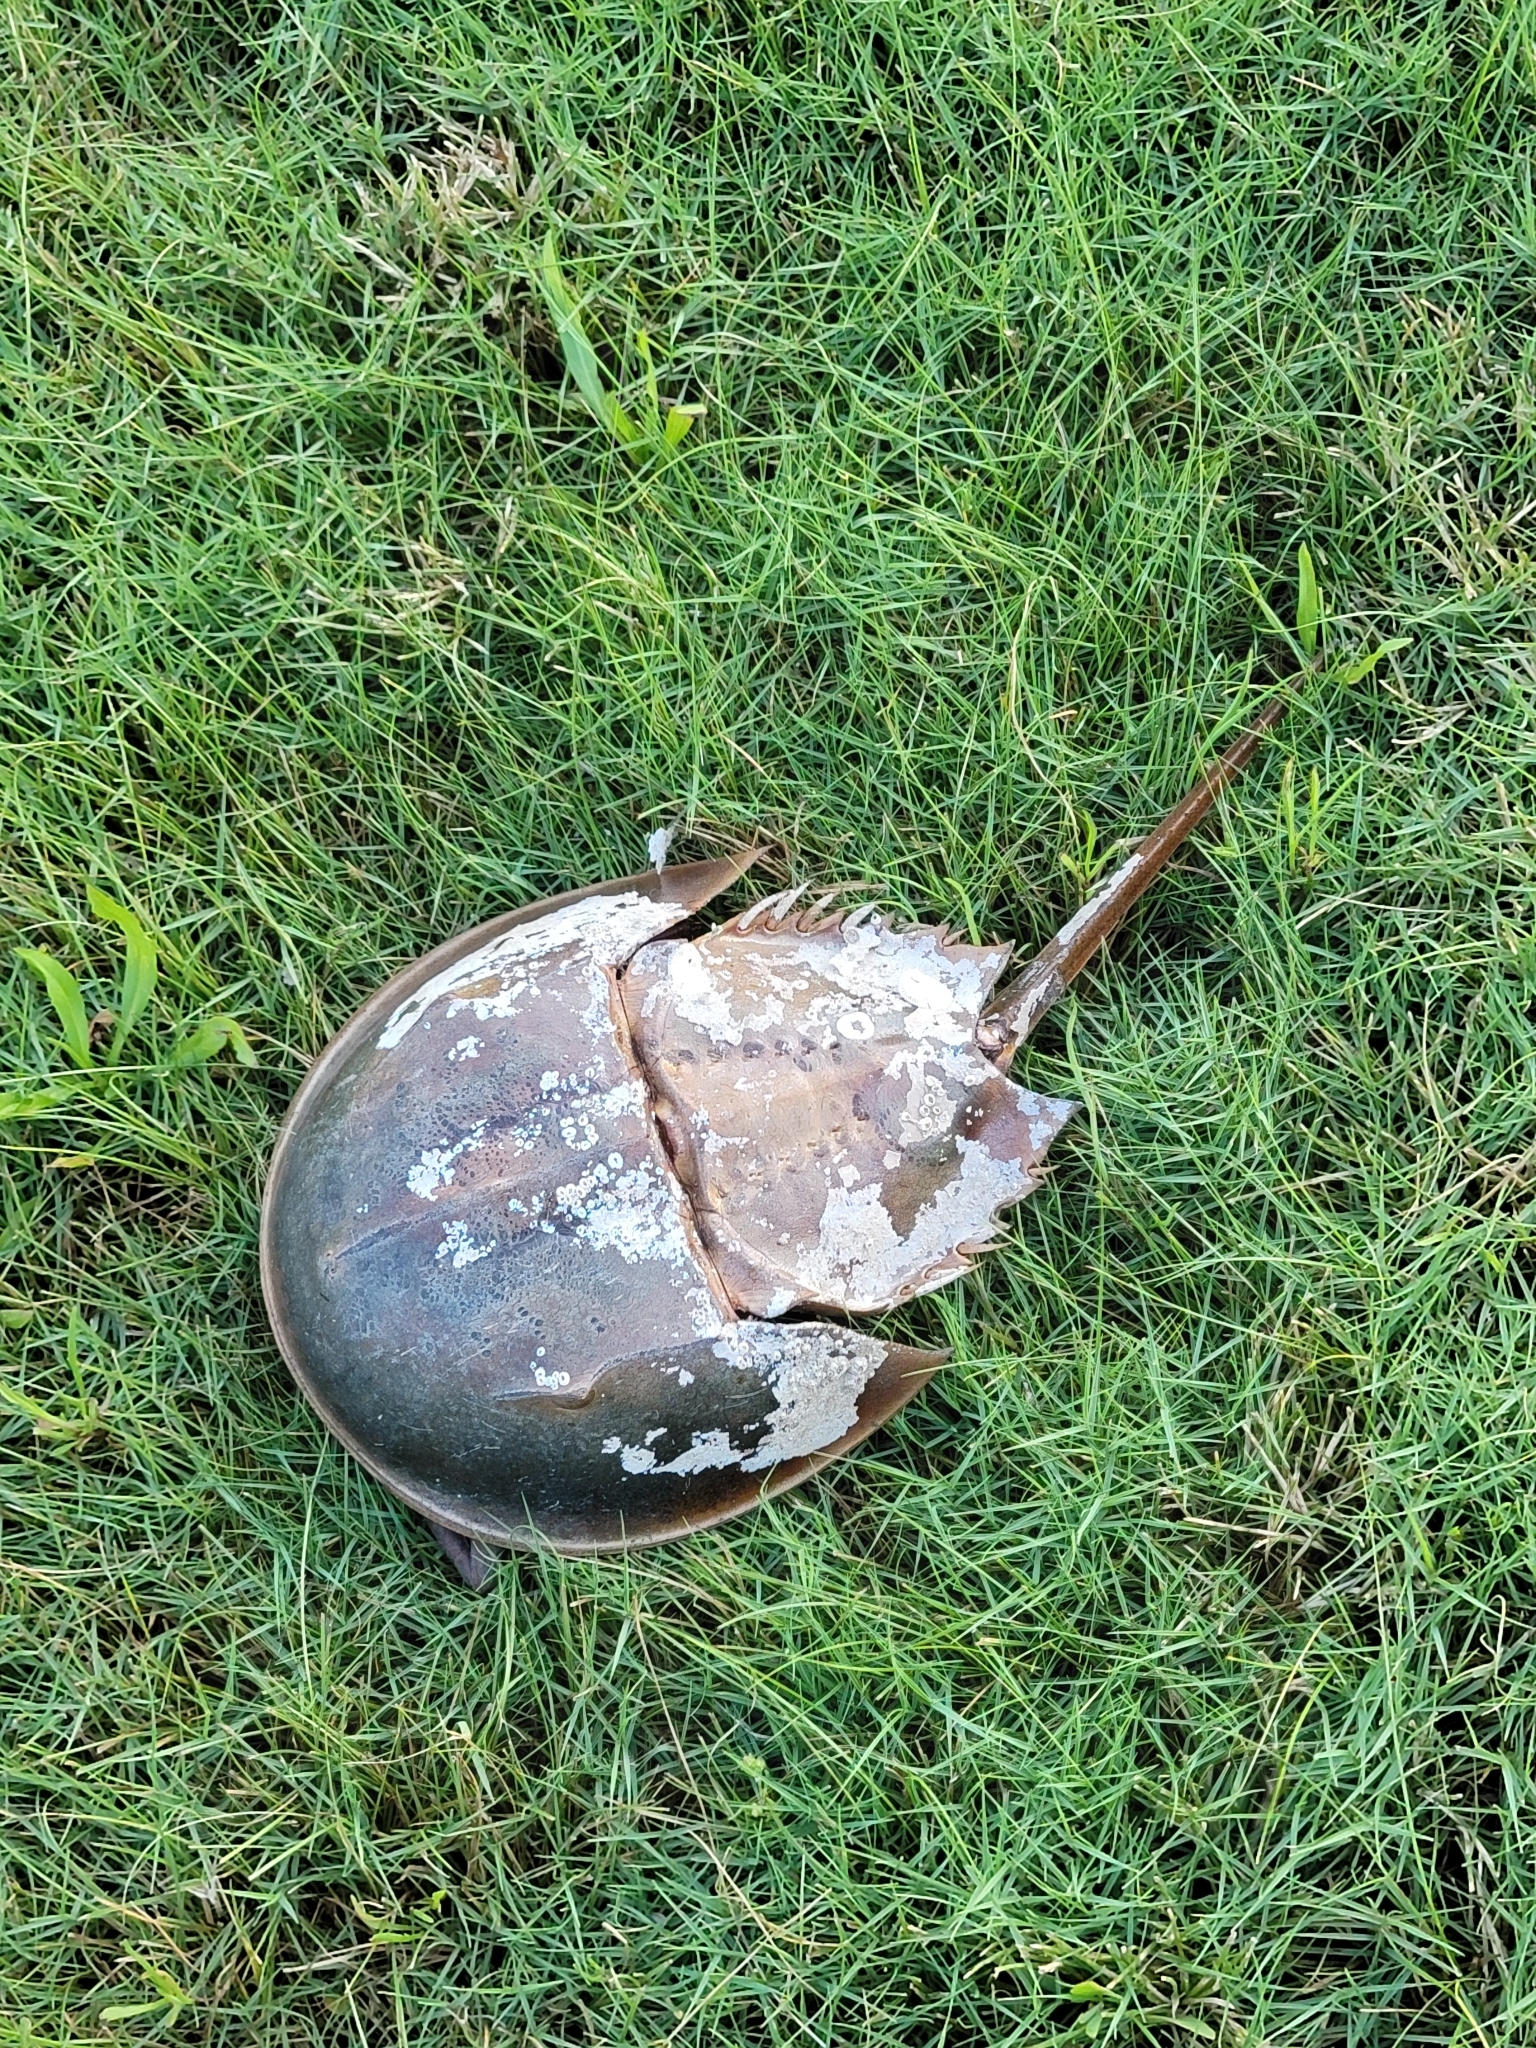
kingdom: Animalia
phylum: Arthropoda
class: Merostomata
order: Xiphosurida
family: Limulidae
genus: Limulus
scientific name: Limulus polyphemus
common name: Horseshoe crab
